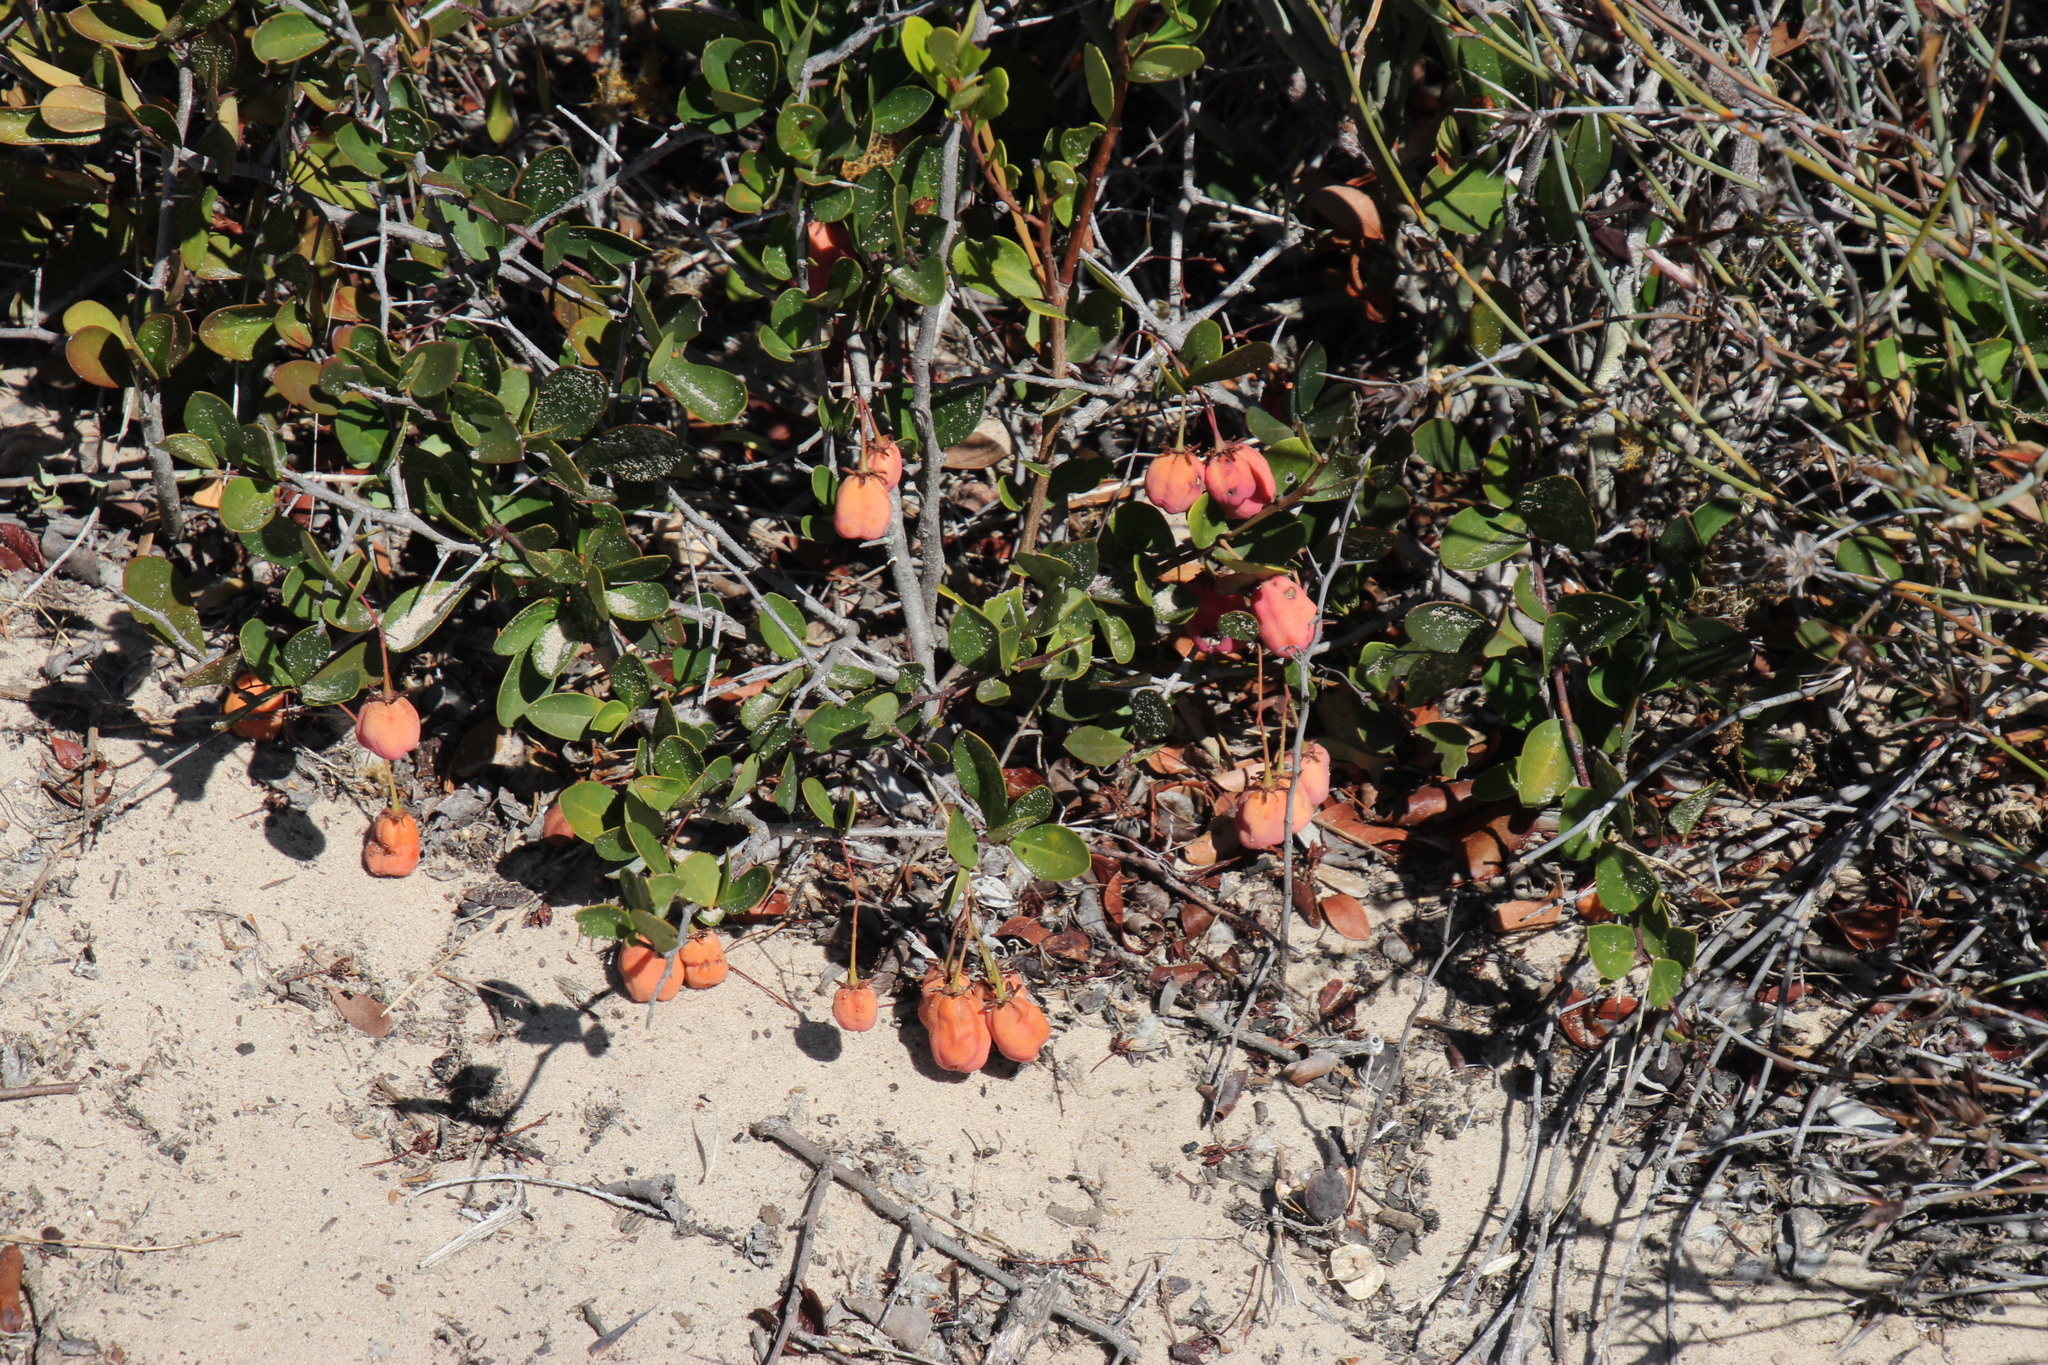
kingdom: Plantae
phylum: Tracheophyta
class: Magnoliopsida
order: Celastrales
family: Celastraceae
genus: Putterlickia
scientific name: Putterlickia pyracantha
